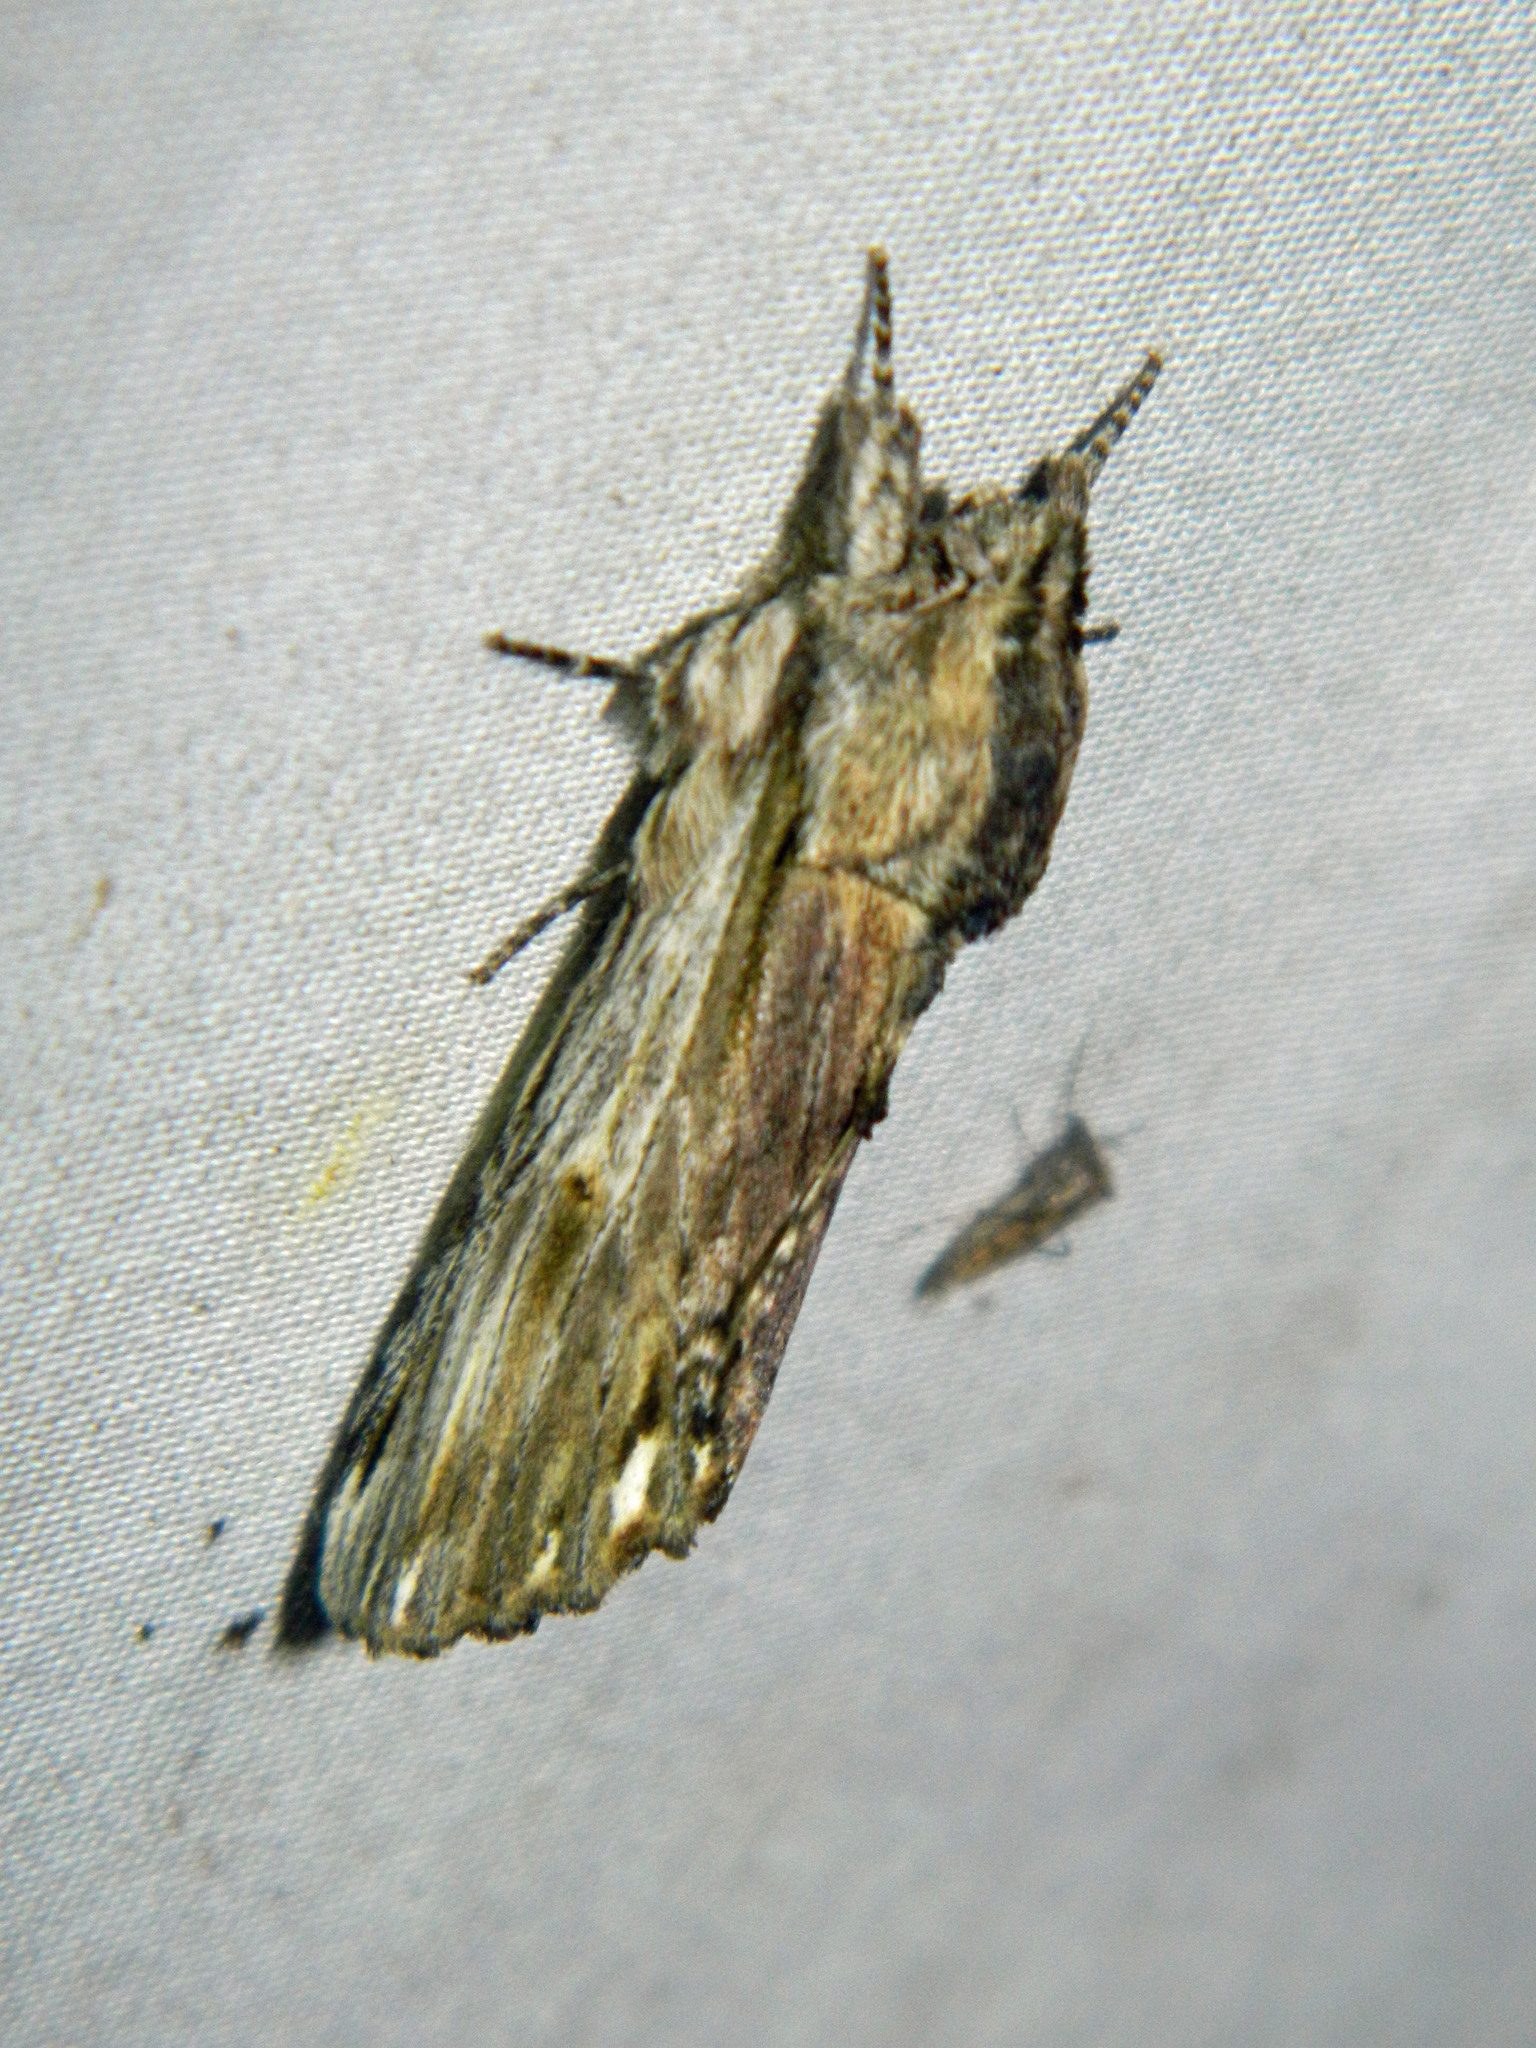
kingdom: Animalia
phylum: Arthropoda
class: Insecta
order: Lepidoptera
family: Notodontidae
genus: Oligocentria
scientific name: Oligocentria Ianassa lignicolor
